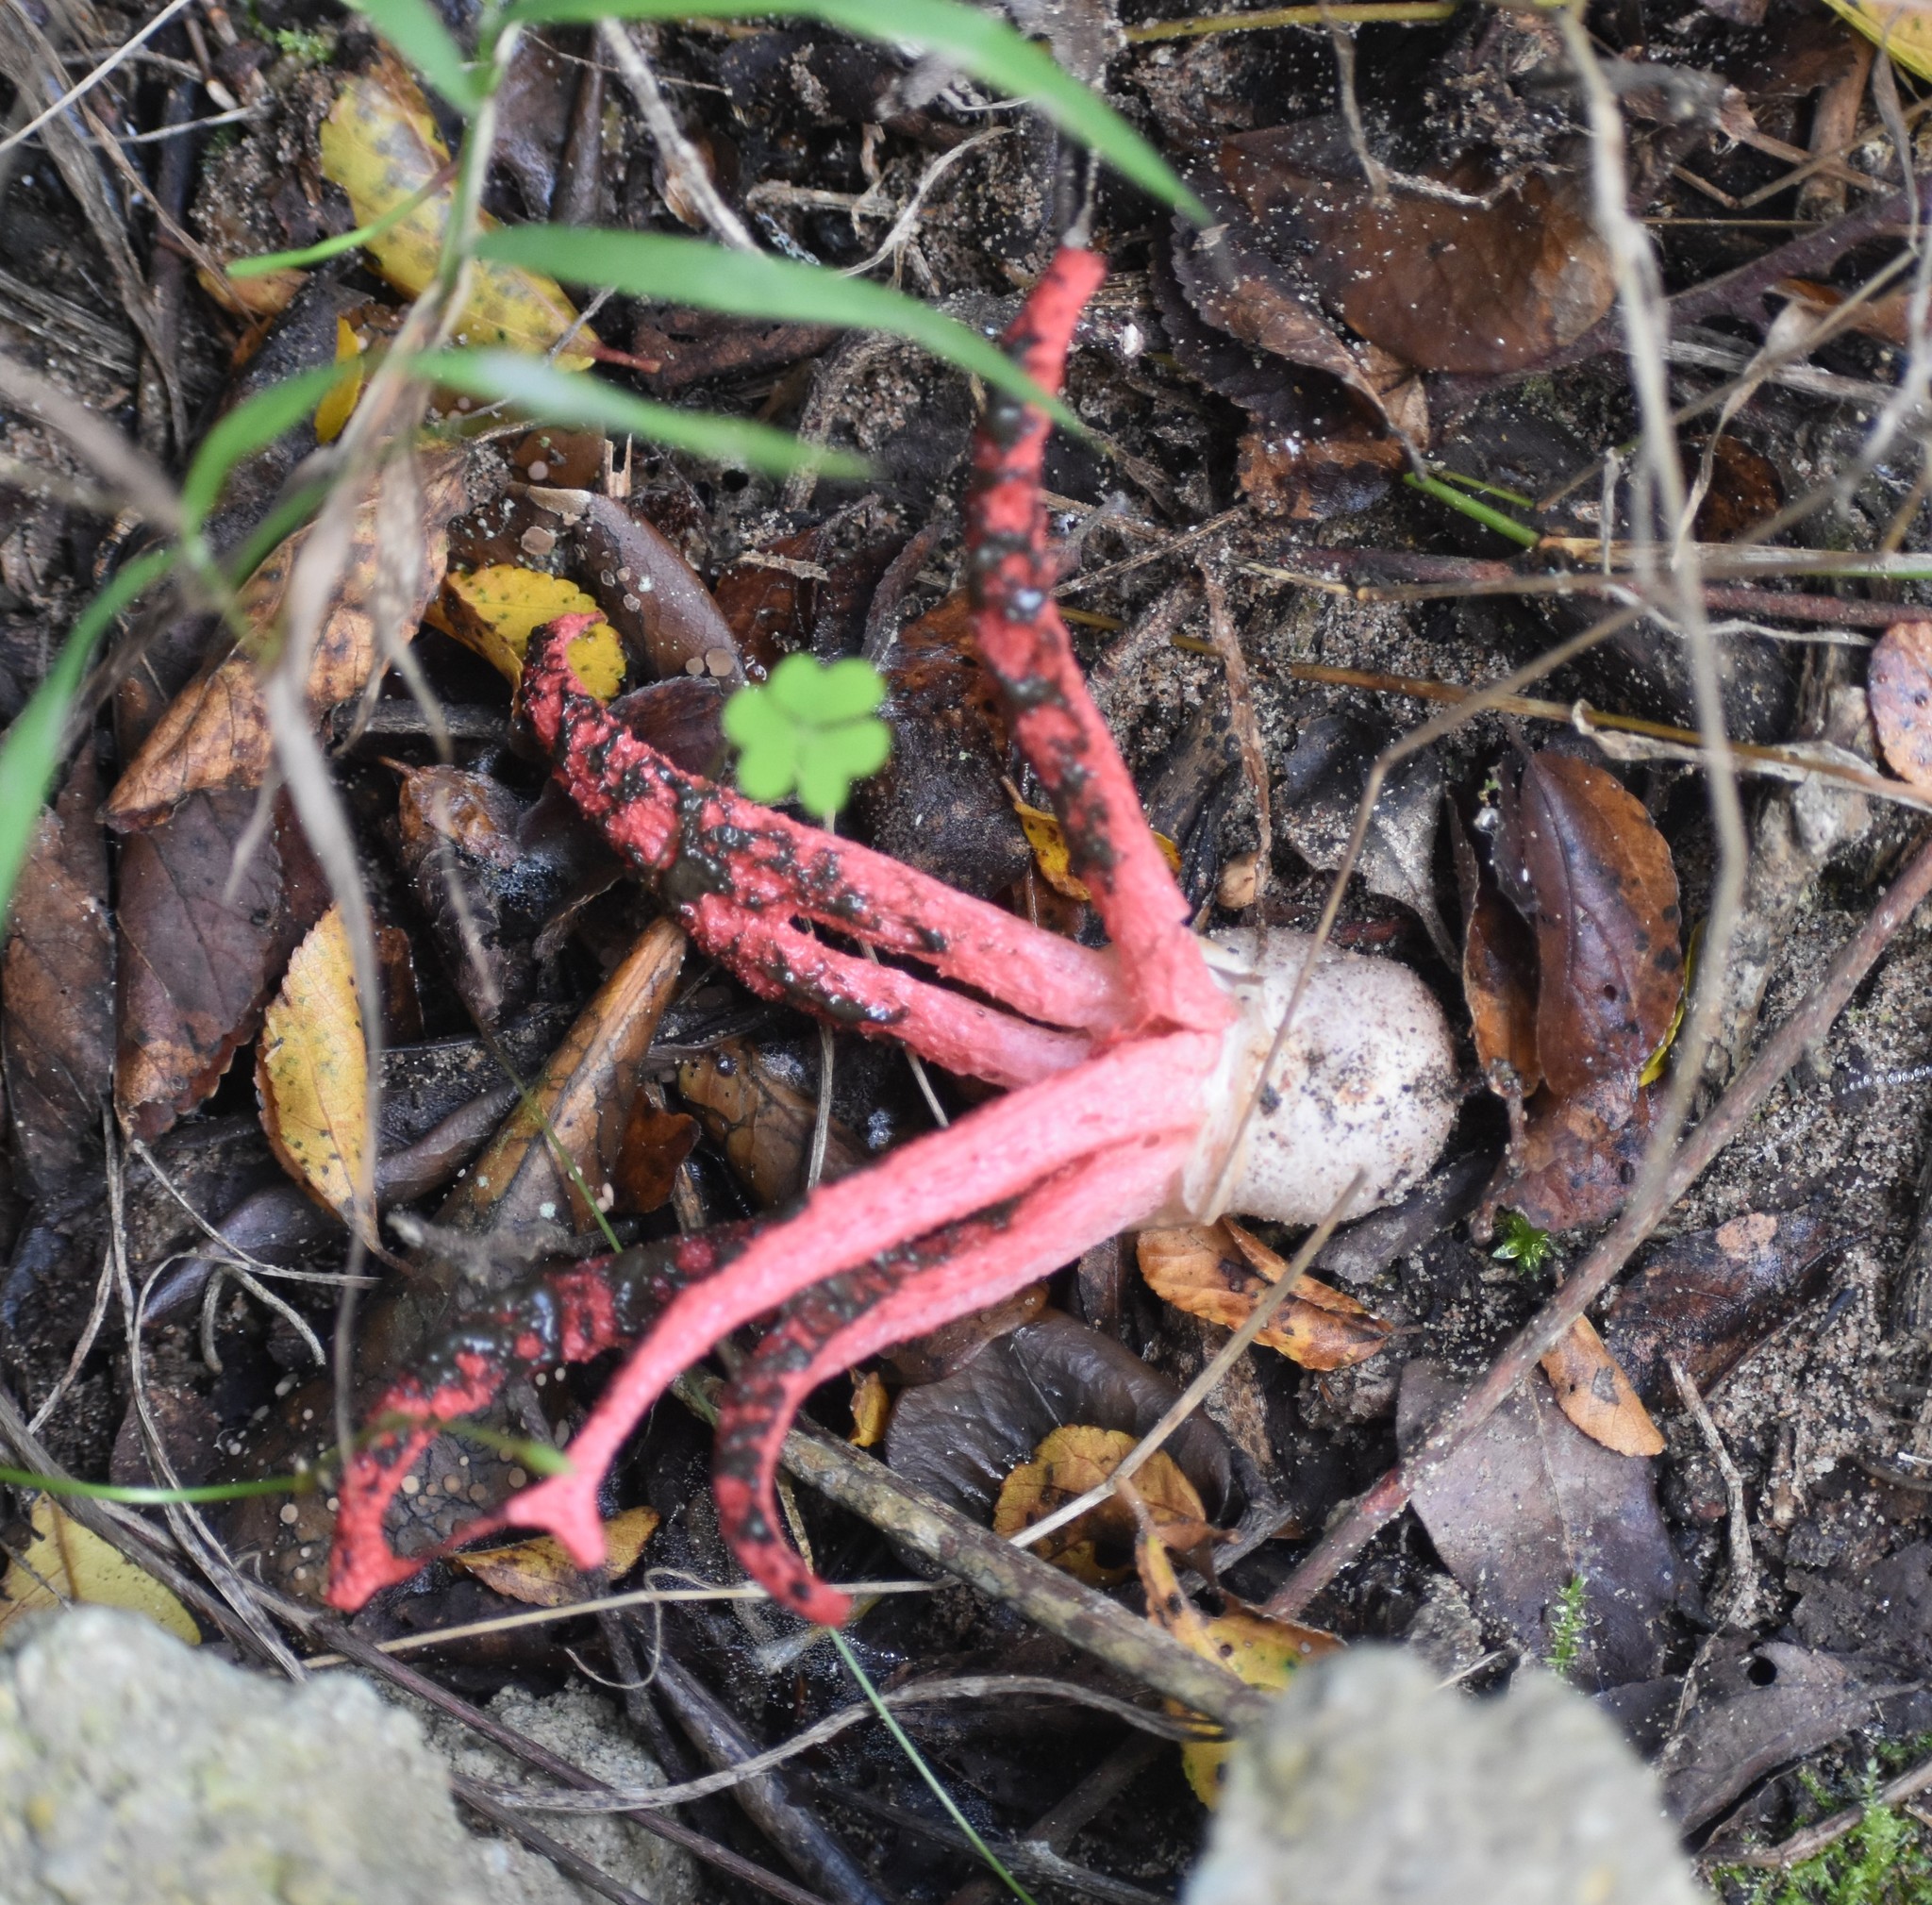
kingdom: Fungi
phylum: Basidiomycota
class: Agaricomycetes
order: Phallales
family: Phallaceae
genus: Clathrus
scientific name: Clathrus archeri
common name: Devil's fingers
